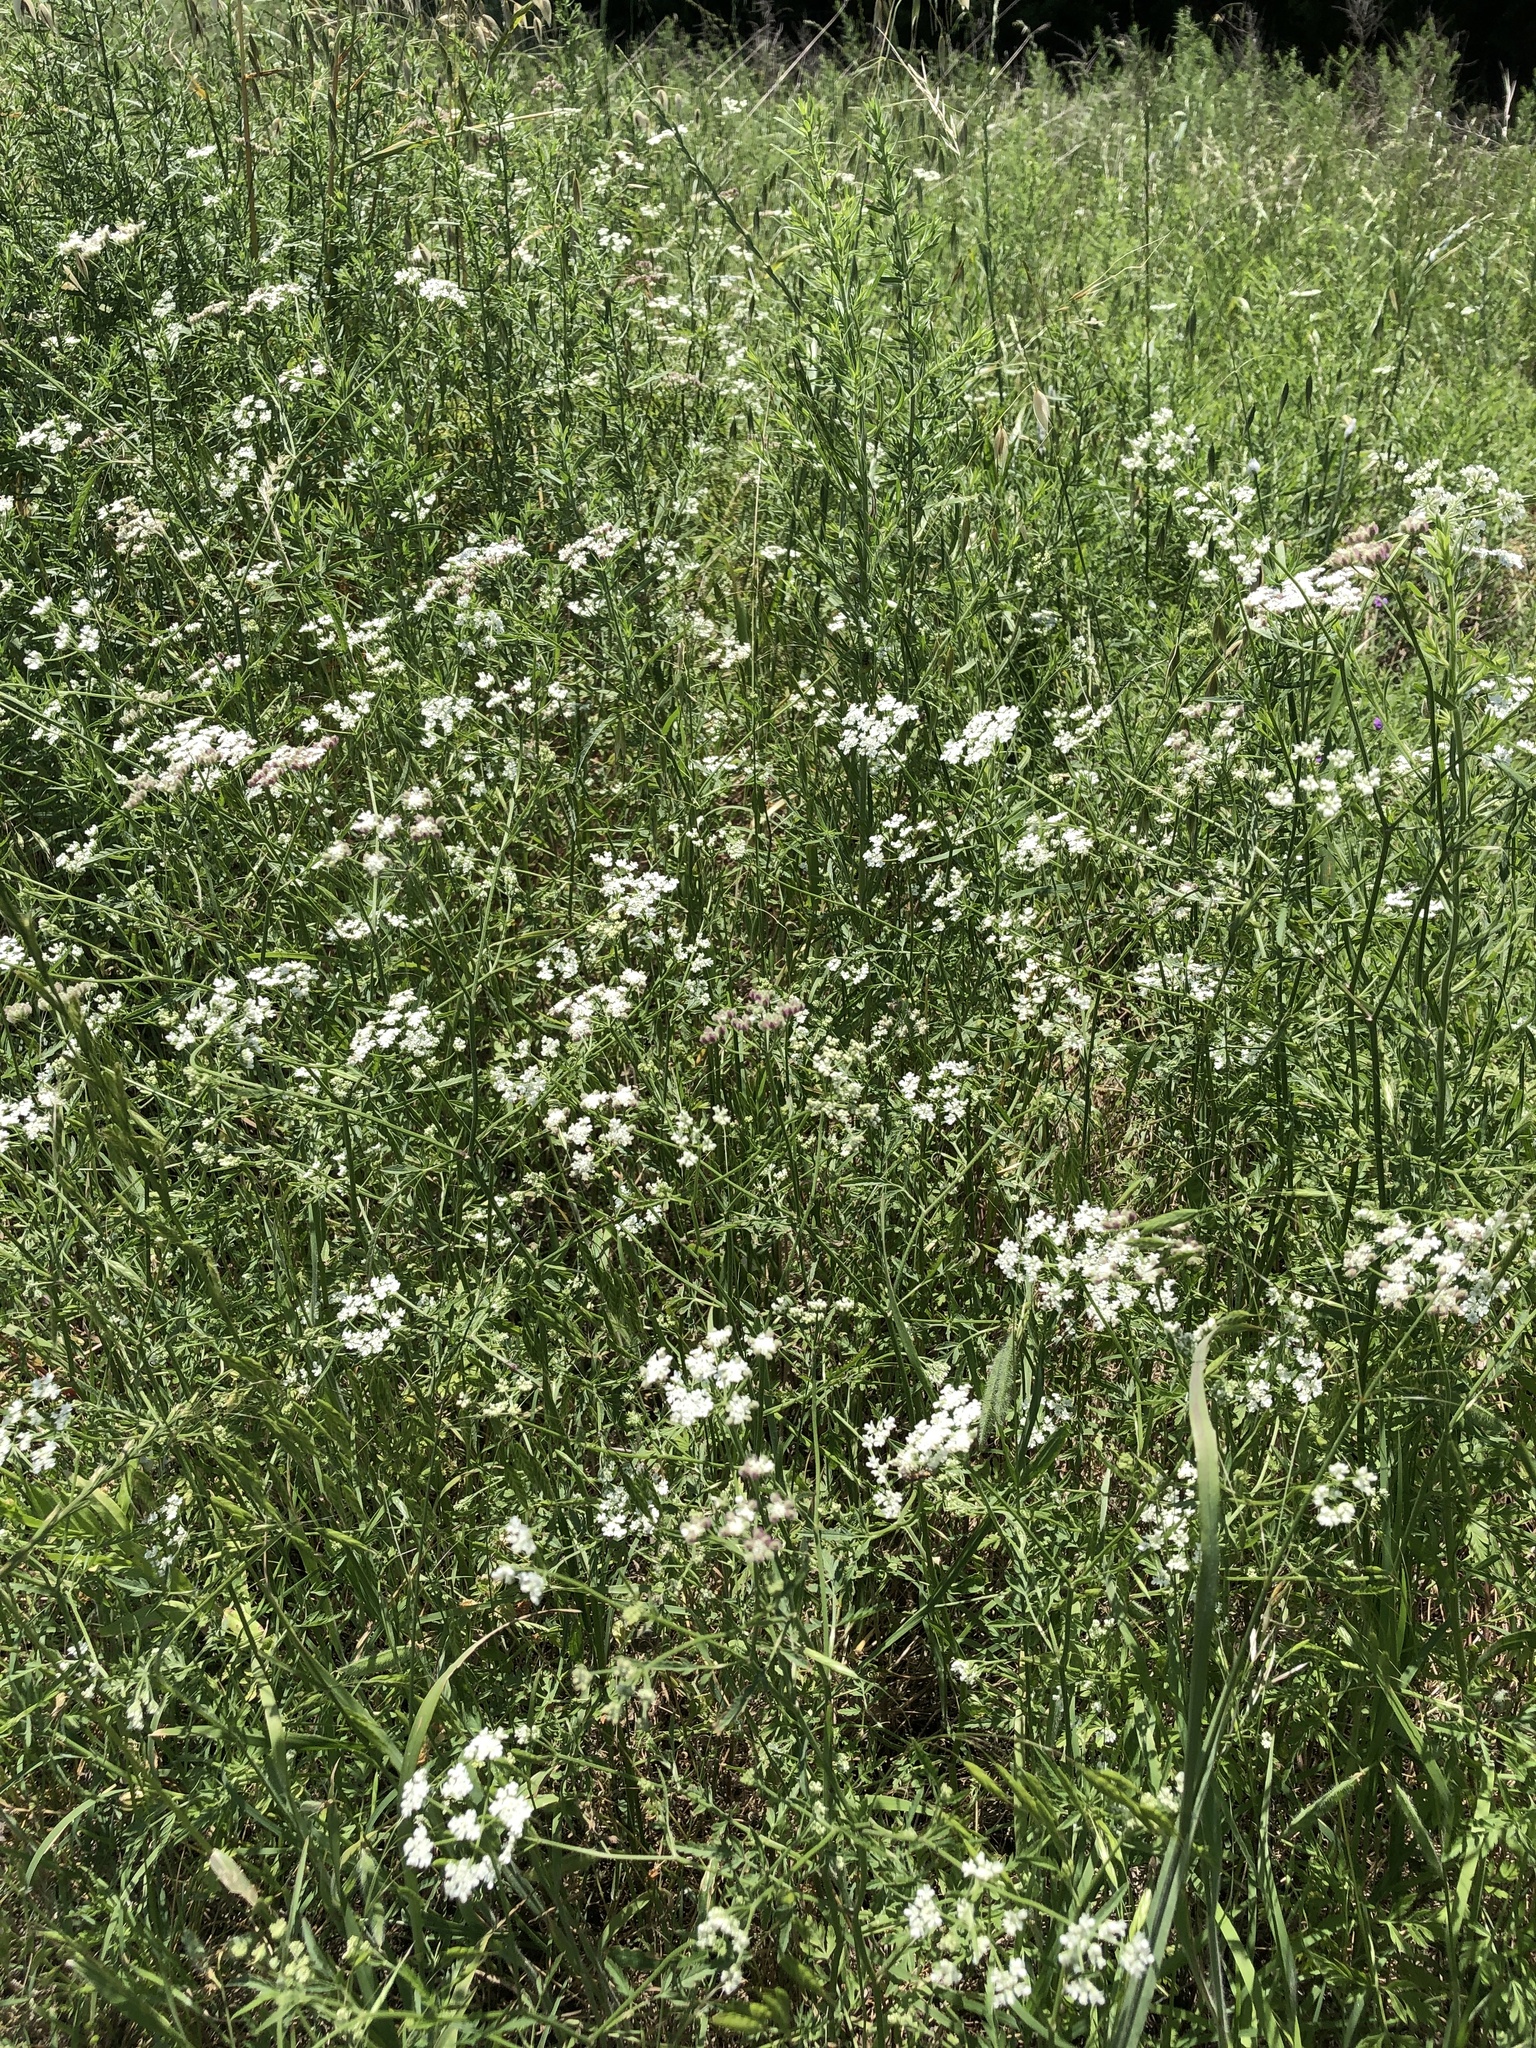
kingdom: Plantae
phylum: Tracheophyta
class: Magnoliopsida
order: Apiales
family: Apiaceae
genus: Torilis
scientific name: Torilis arvensis
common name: Spreading hedge-parsley
